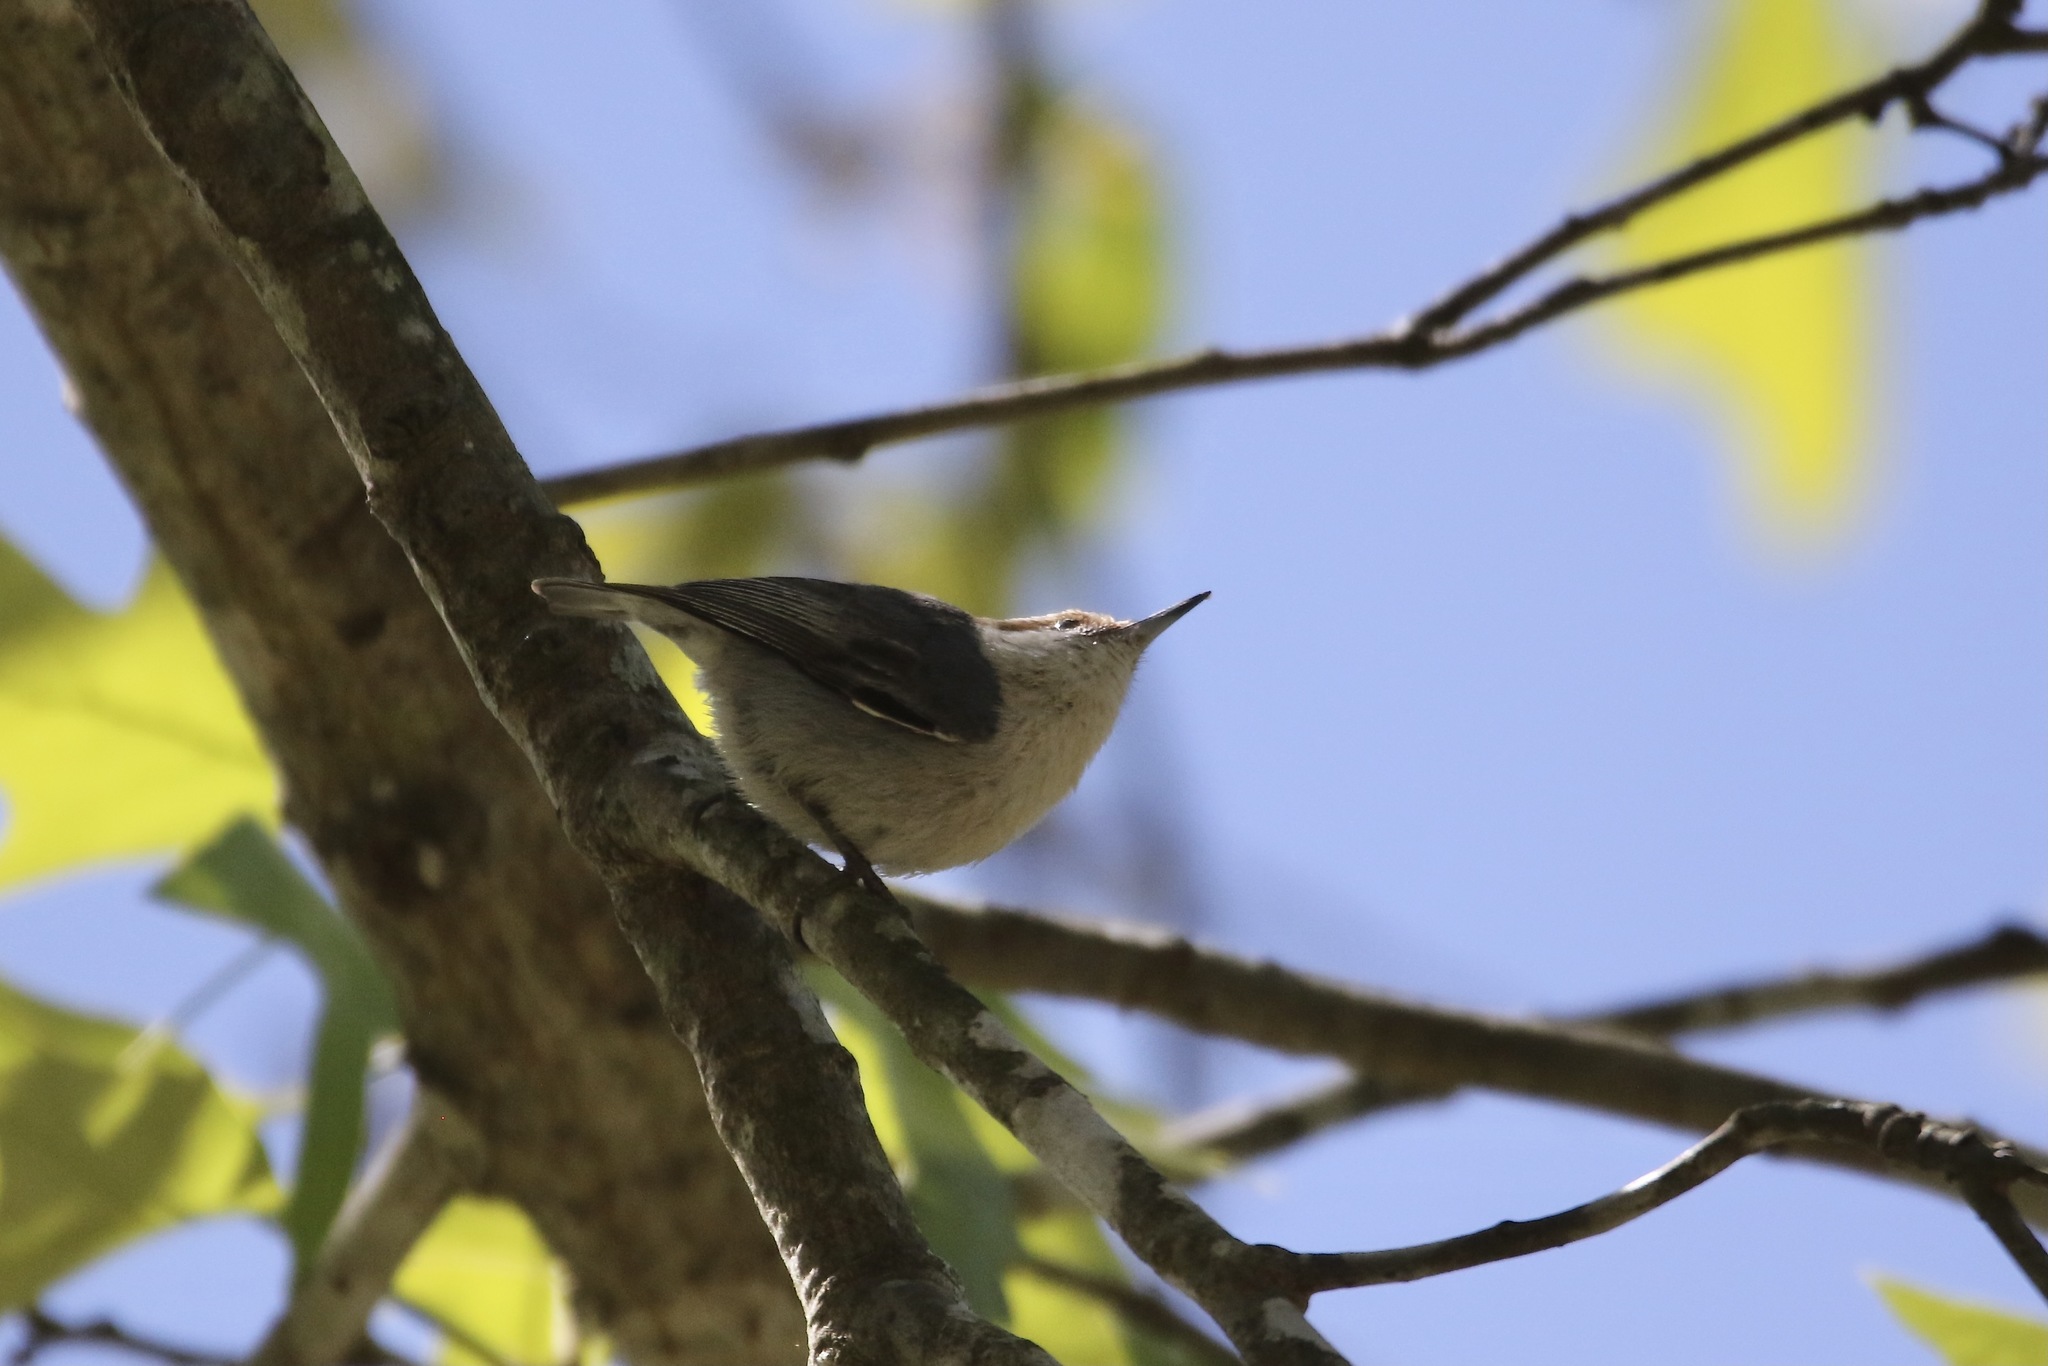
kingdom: Animalia
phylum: Chordata
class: Aves
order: Passeriformes
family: Sittidae
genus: Sitta
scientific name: Sitta pusilla
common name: Brown-headed nuthatch
